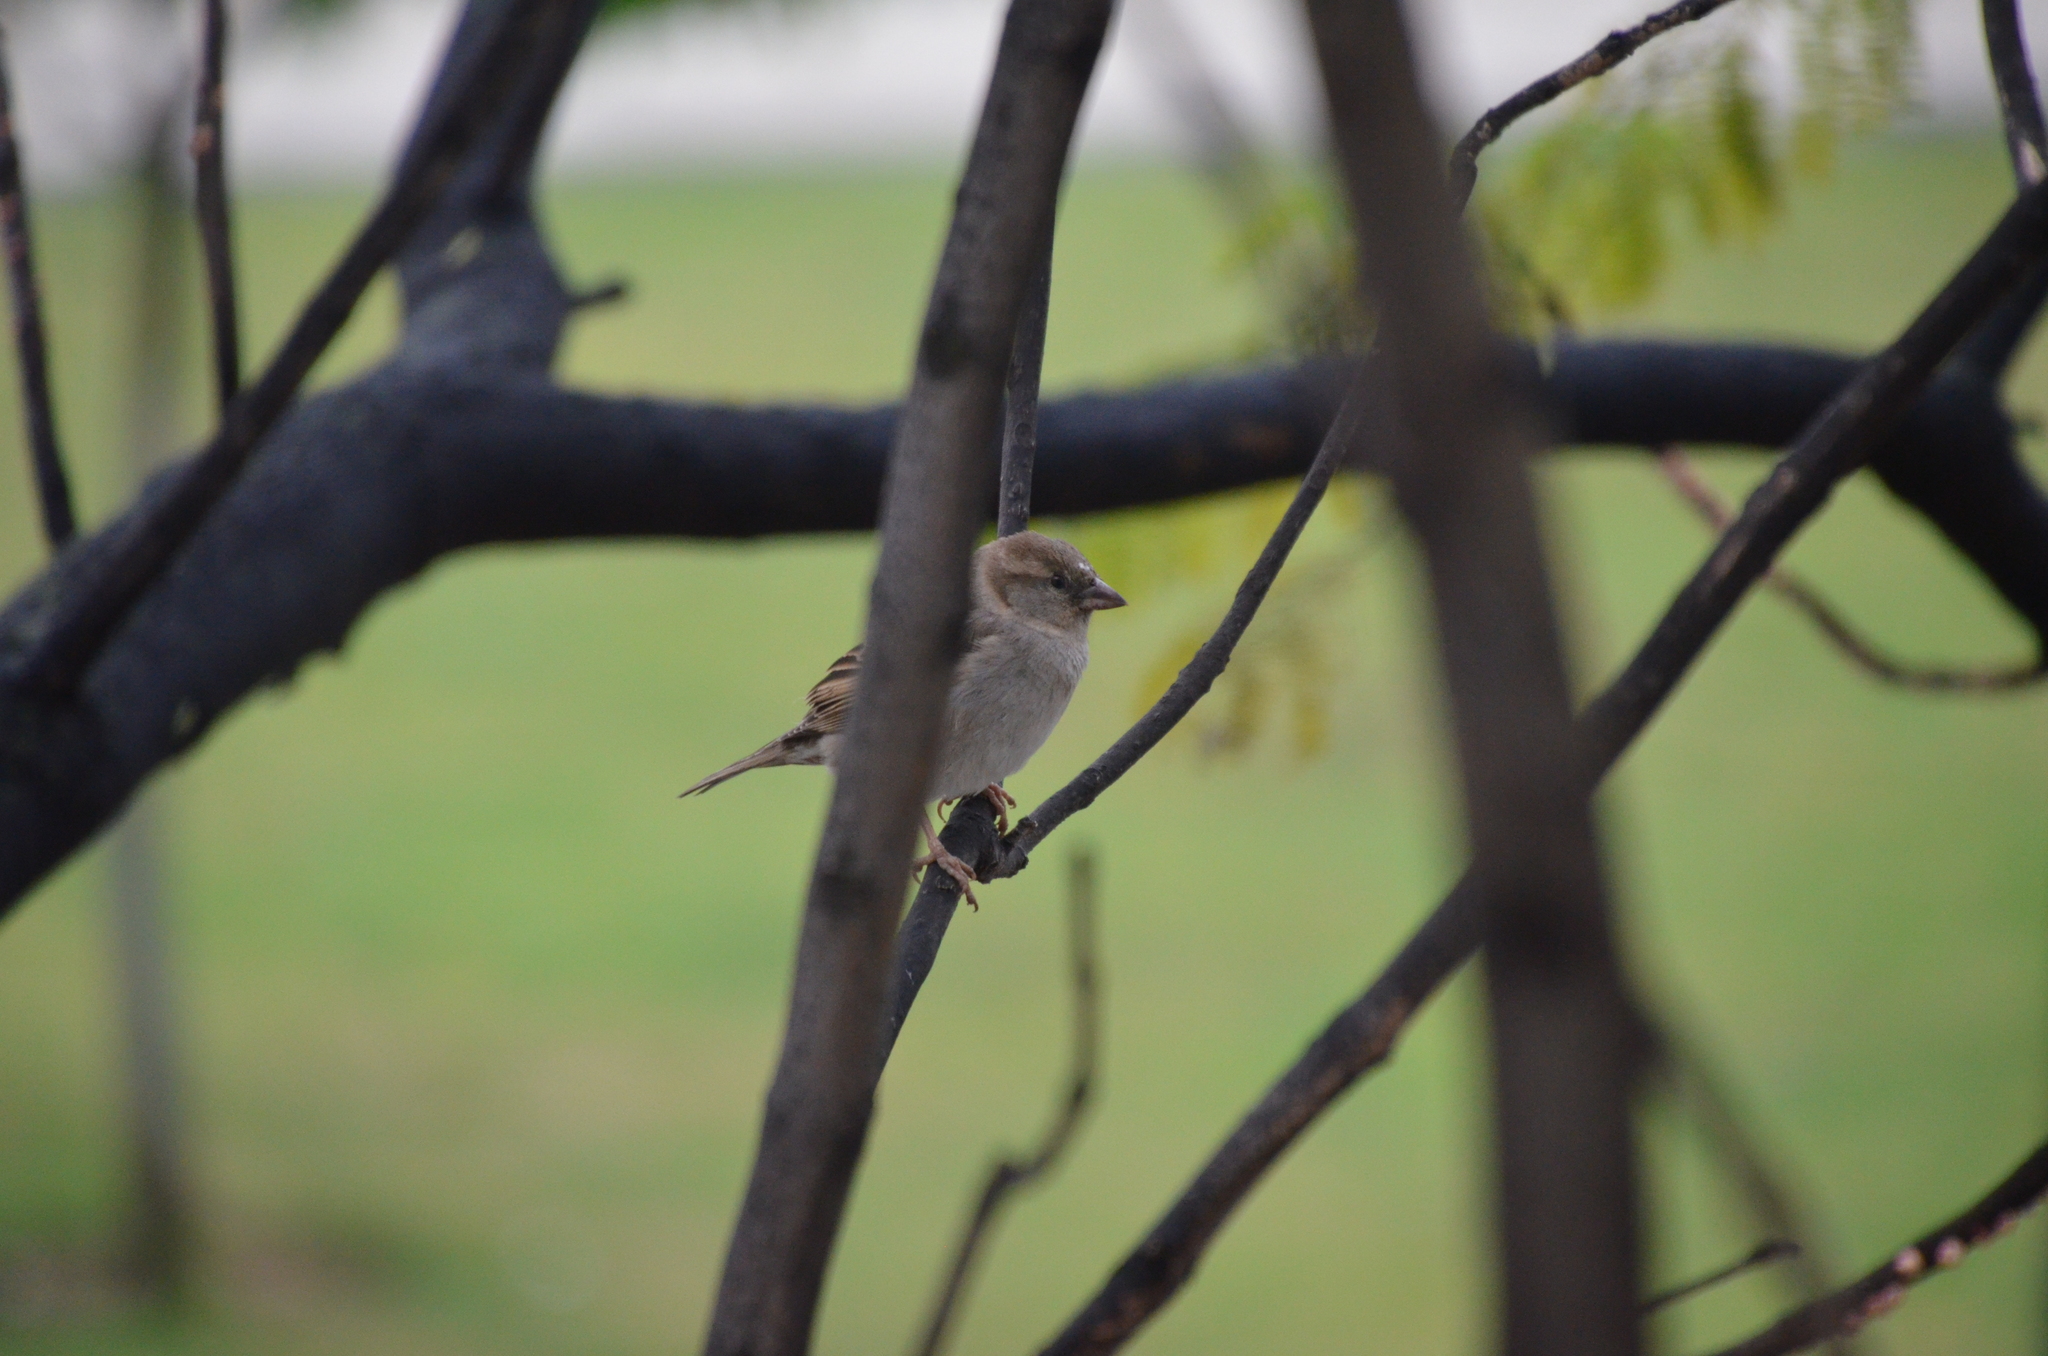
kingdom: Animalia
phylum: Chordata
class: Aves
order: Passeriformes
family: Passeridae
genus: Passer
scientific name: Passer domesticus
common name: House sparrow
